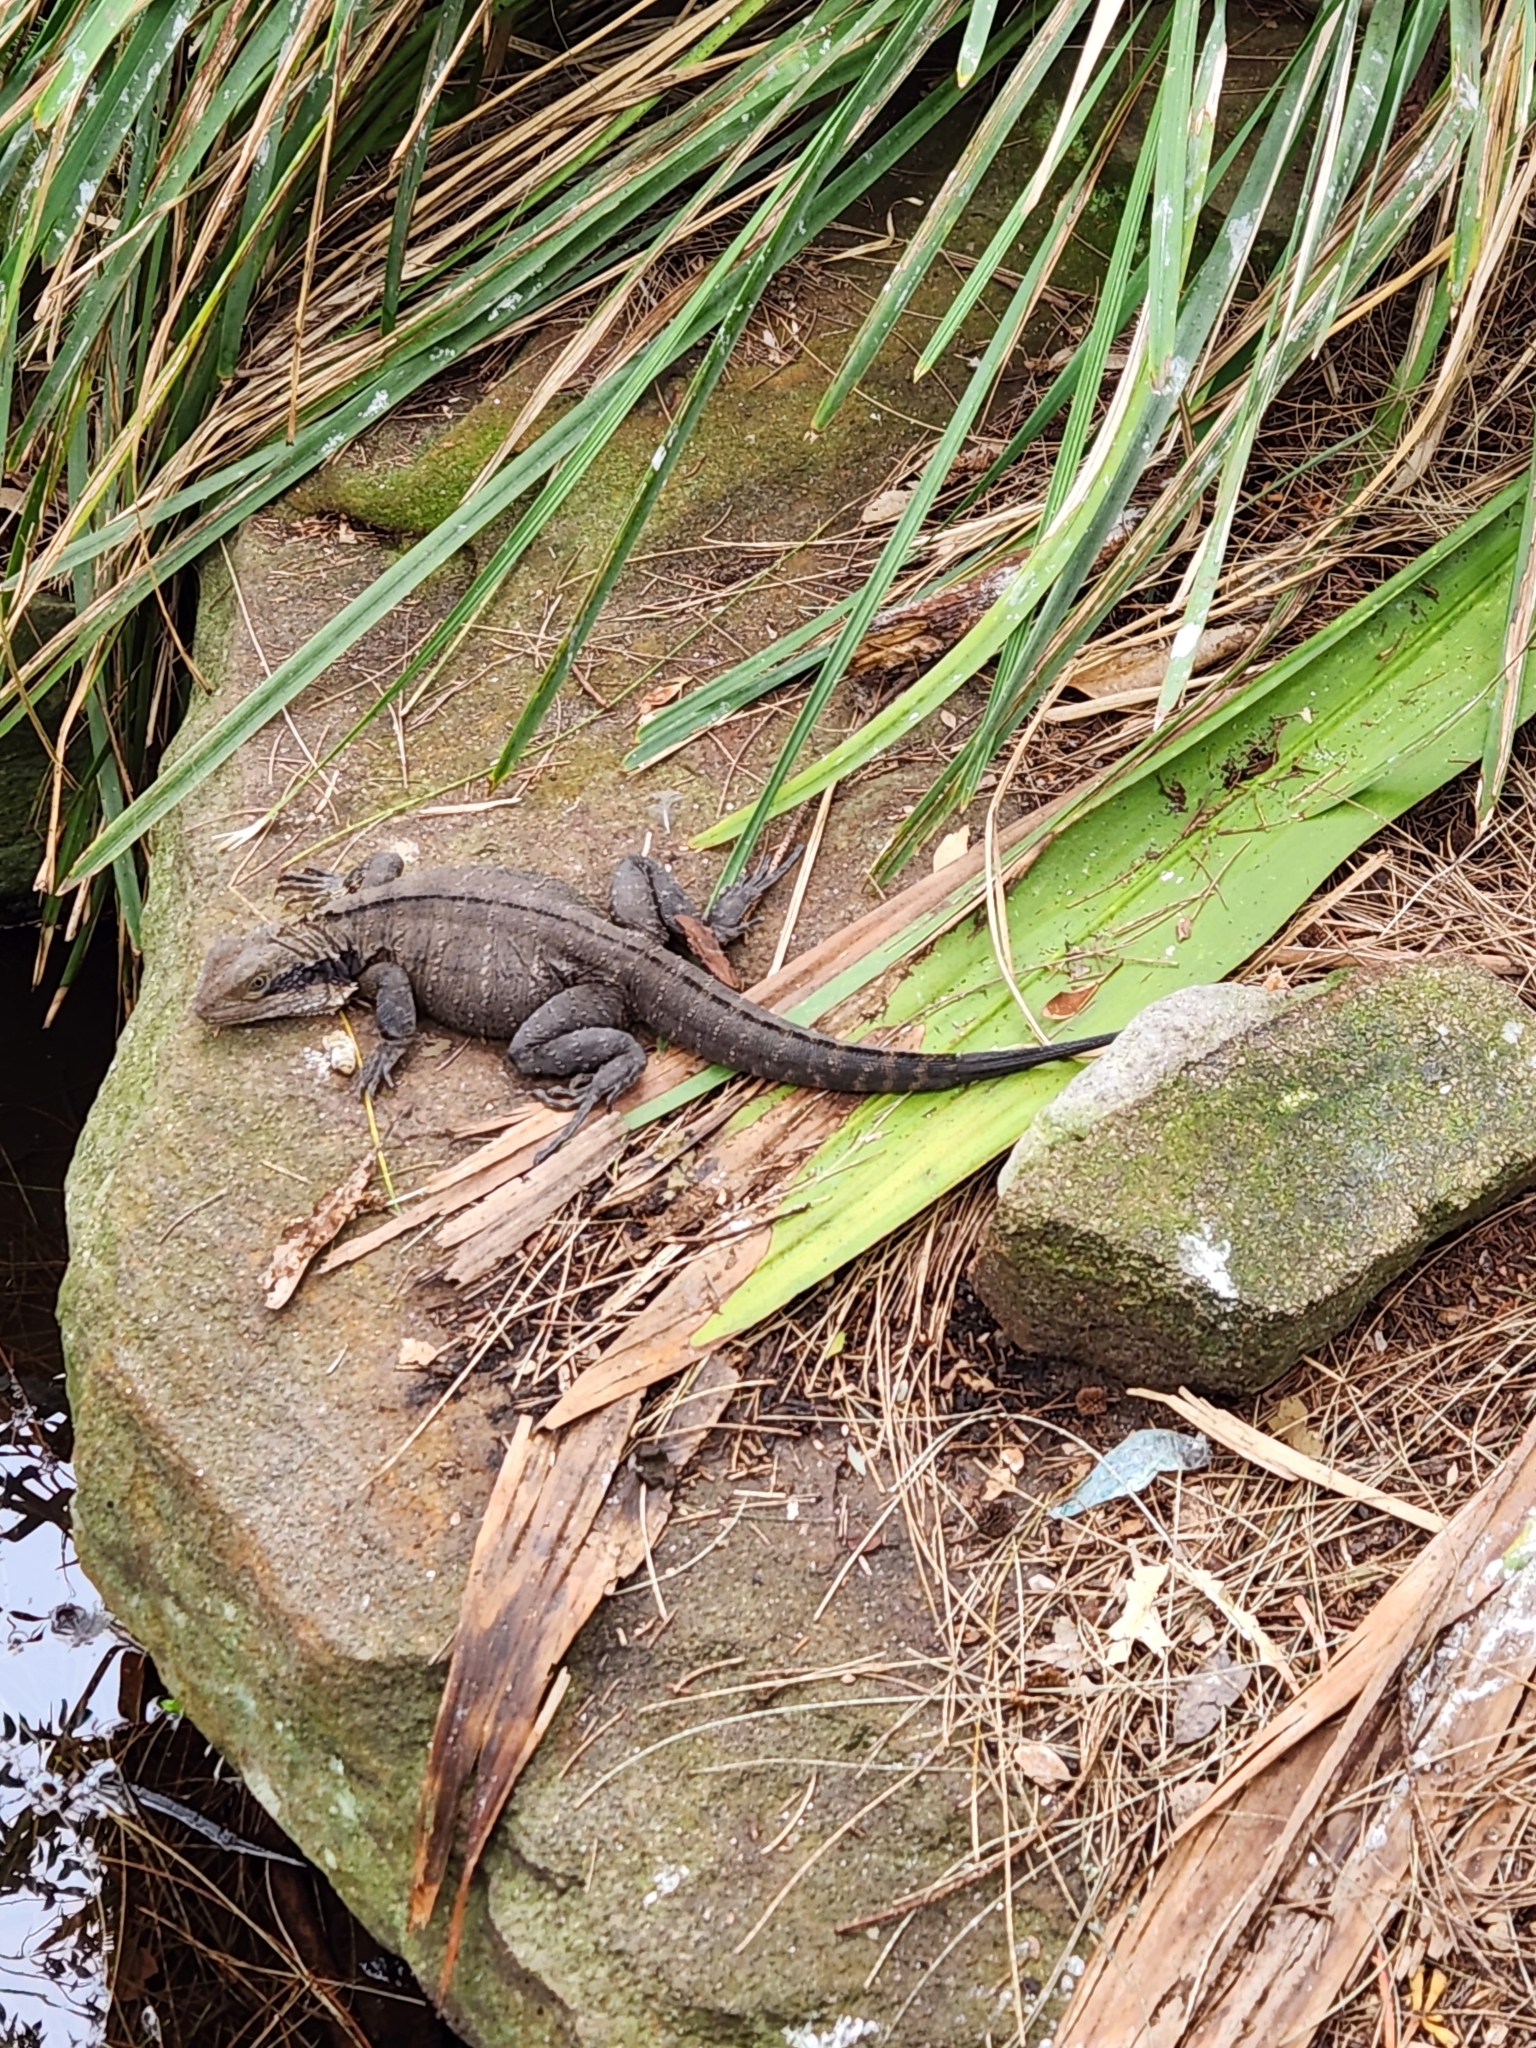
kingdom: Animalia
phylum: Chordata
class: Squamata
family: Agamidae
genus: Intellagama
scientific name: Intellagama lesueurii
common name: Eastern water dragon
